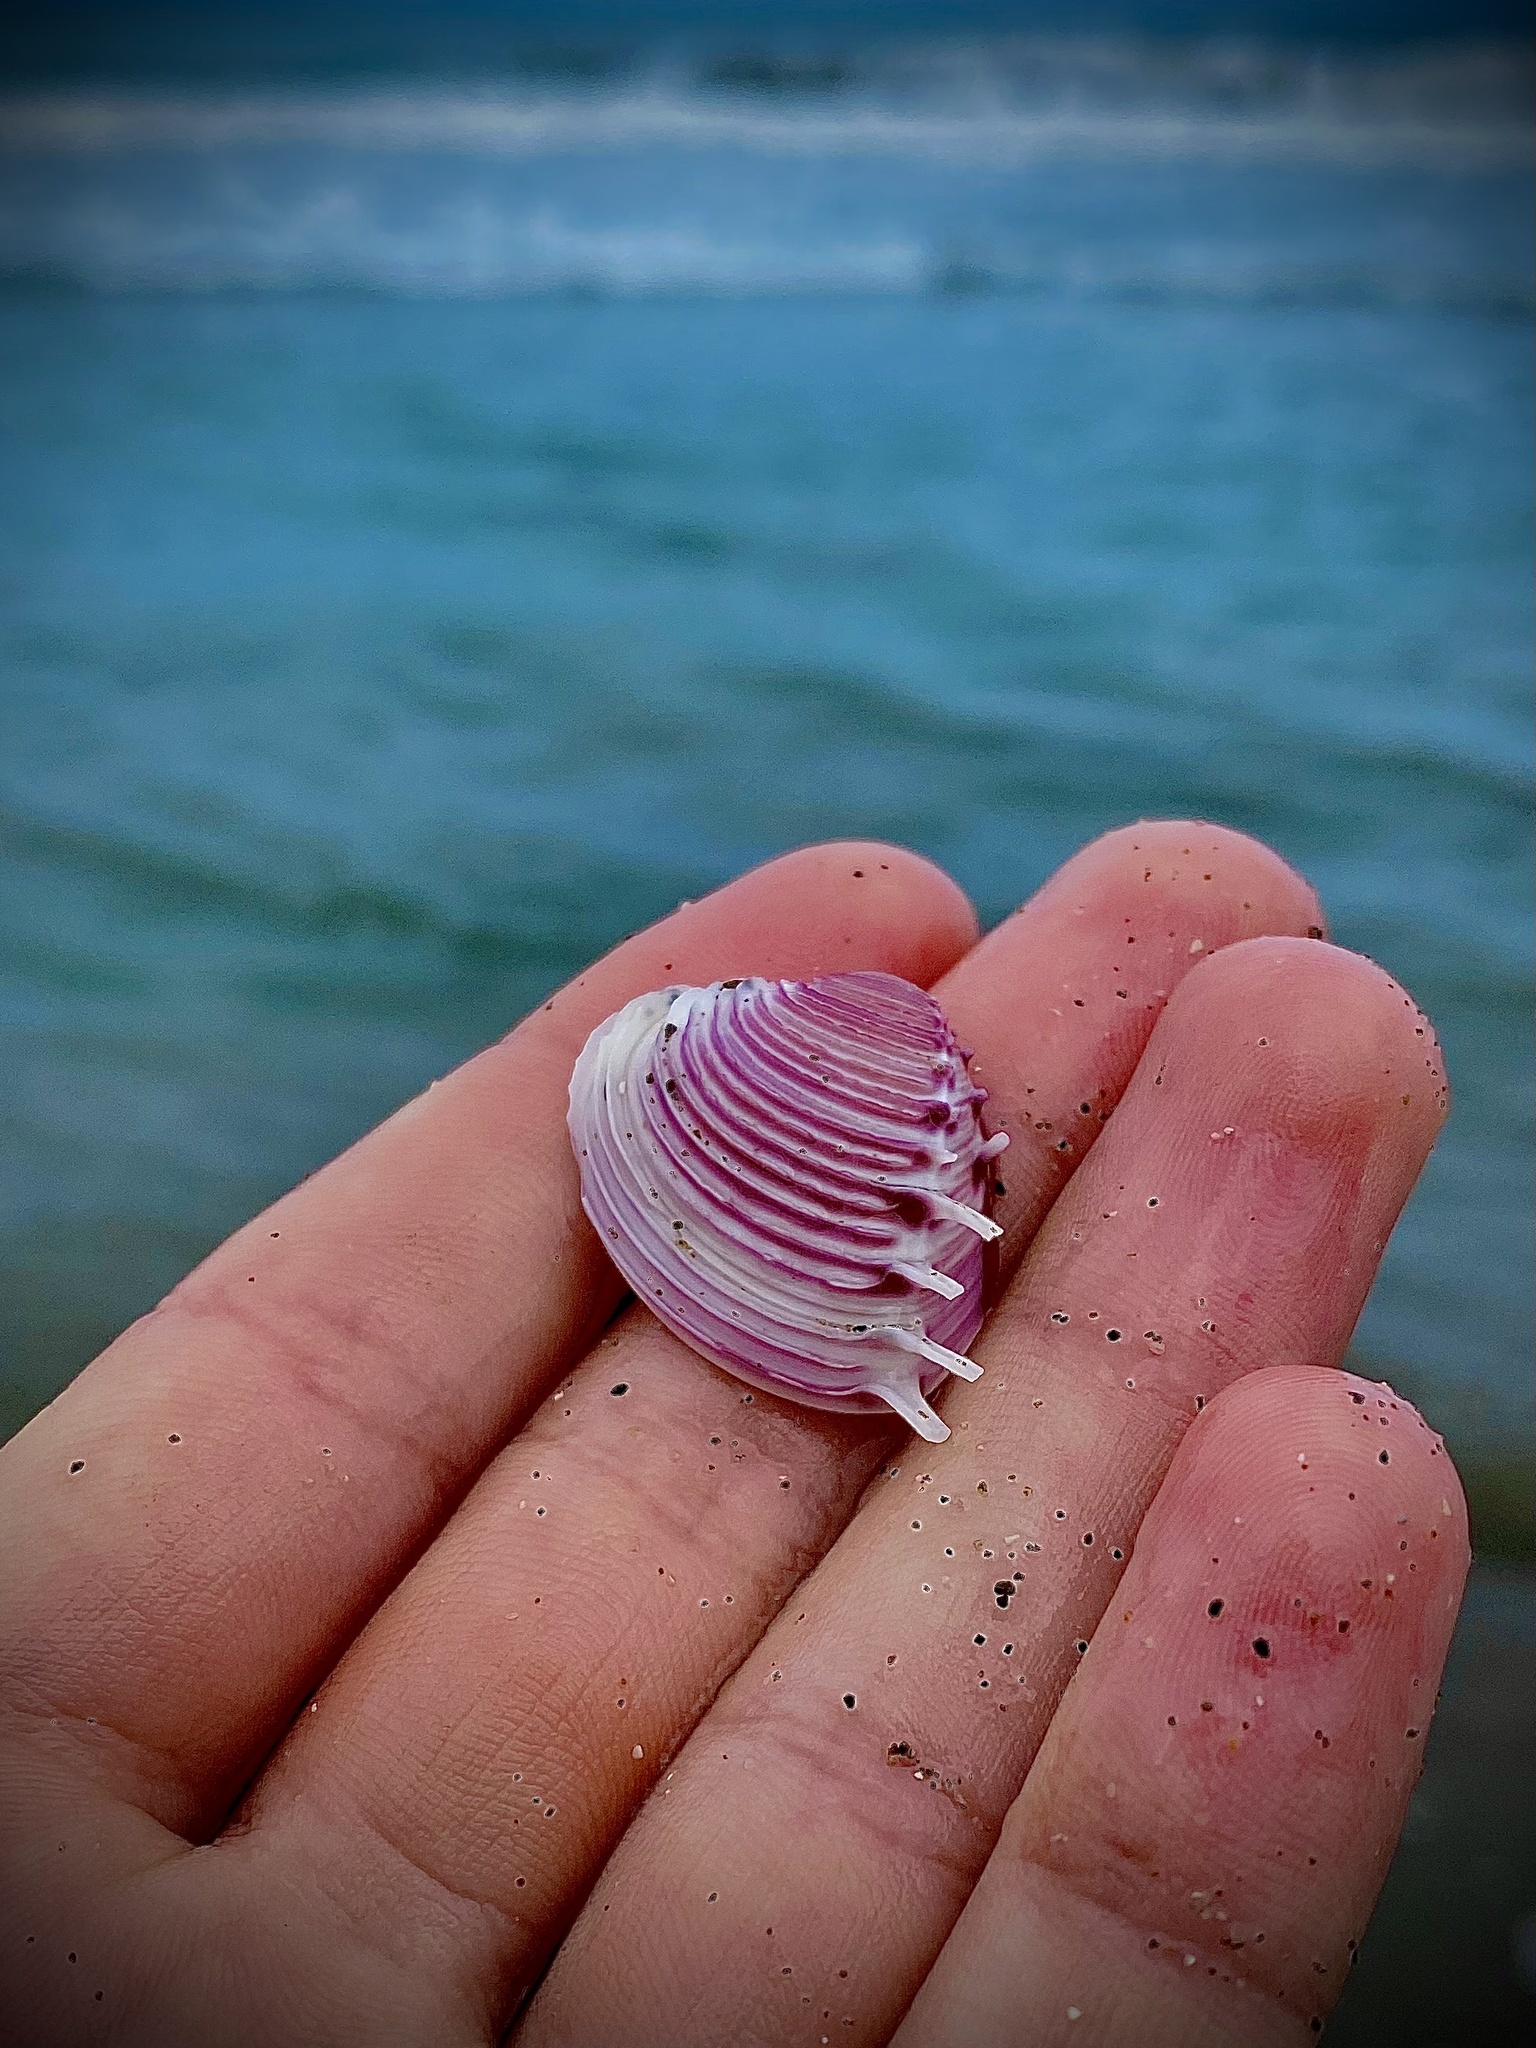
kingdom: Animalia
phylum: Mollusca
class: Bivalvia
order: Venerida
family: Veneridae
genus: Hysteroconcha
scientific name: Hysteroconcha dione
